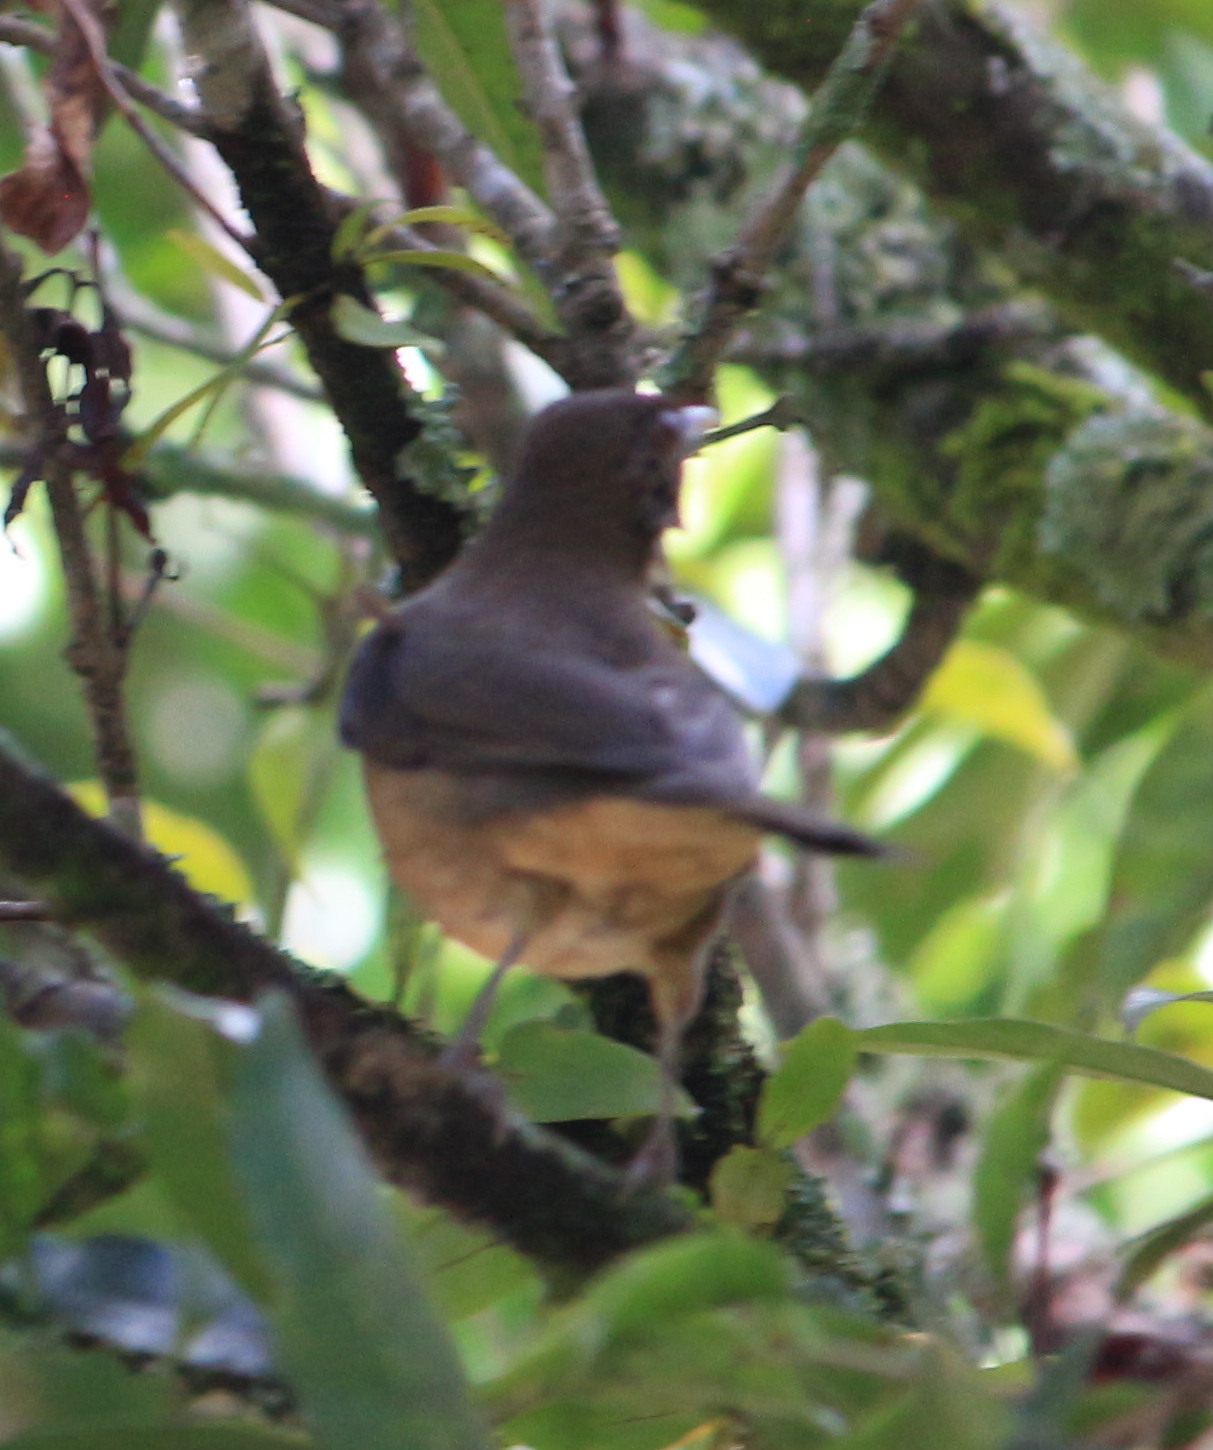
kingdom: Animalia
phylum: Chordata
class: Aves
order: Passeriformes
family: Turdidae
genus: Turdus
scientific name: Turdus grayi
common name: Clay-colored thrush
